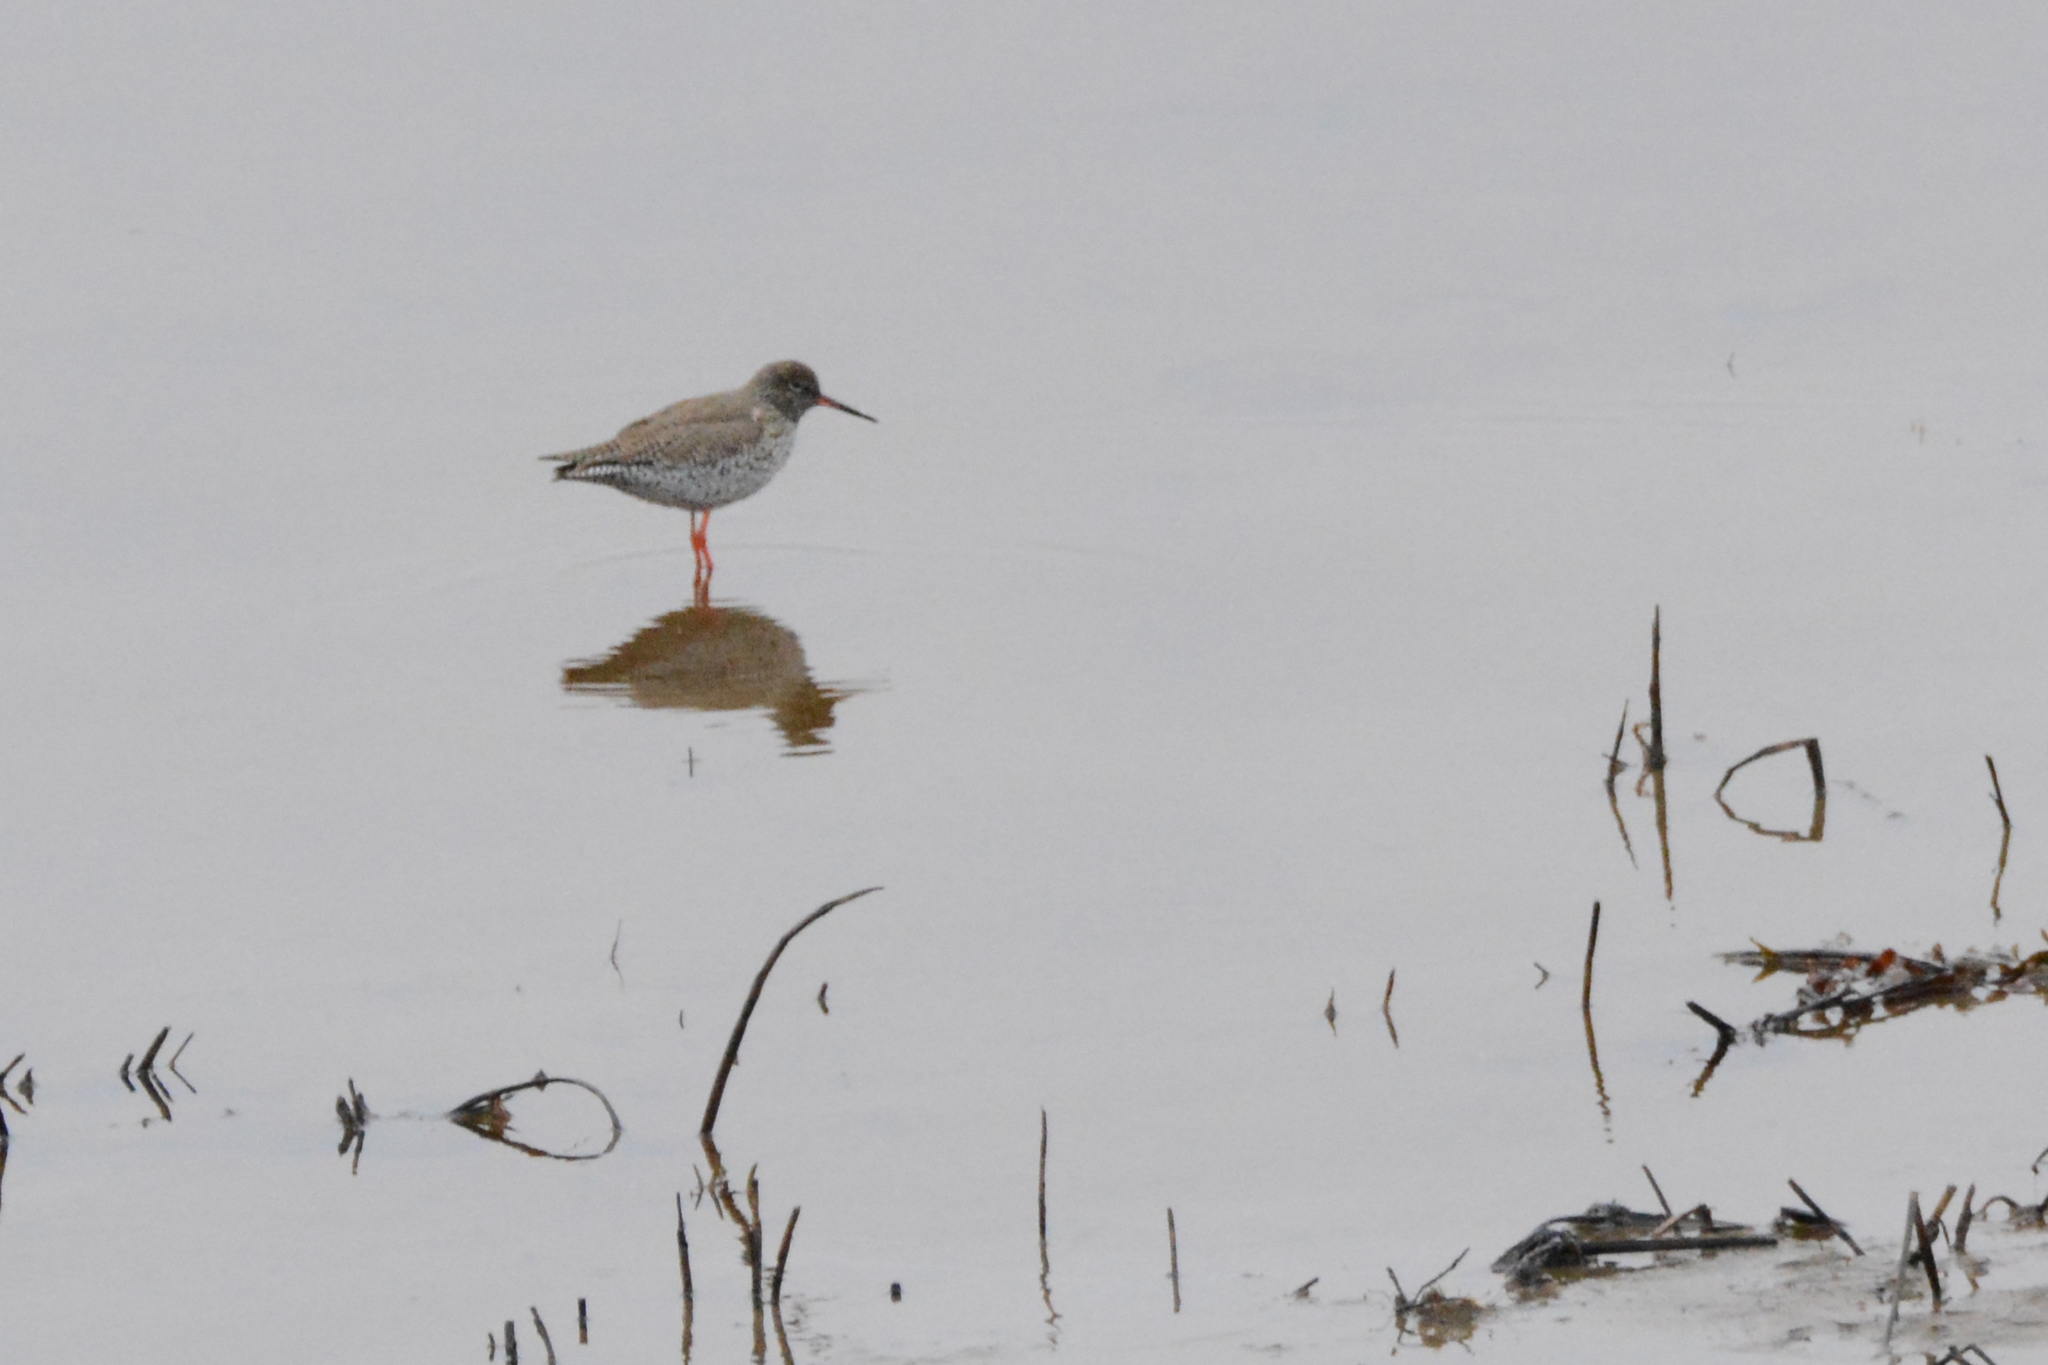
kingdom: Animalia
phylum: Chordata
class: Aves
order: Charadriiformes
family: Scolopacidae
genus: Tringa
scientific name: Tringa totanus
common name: Common redshank
